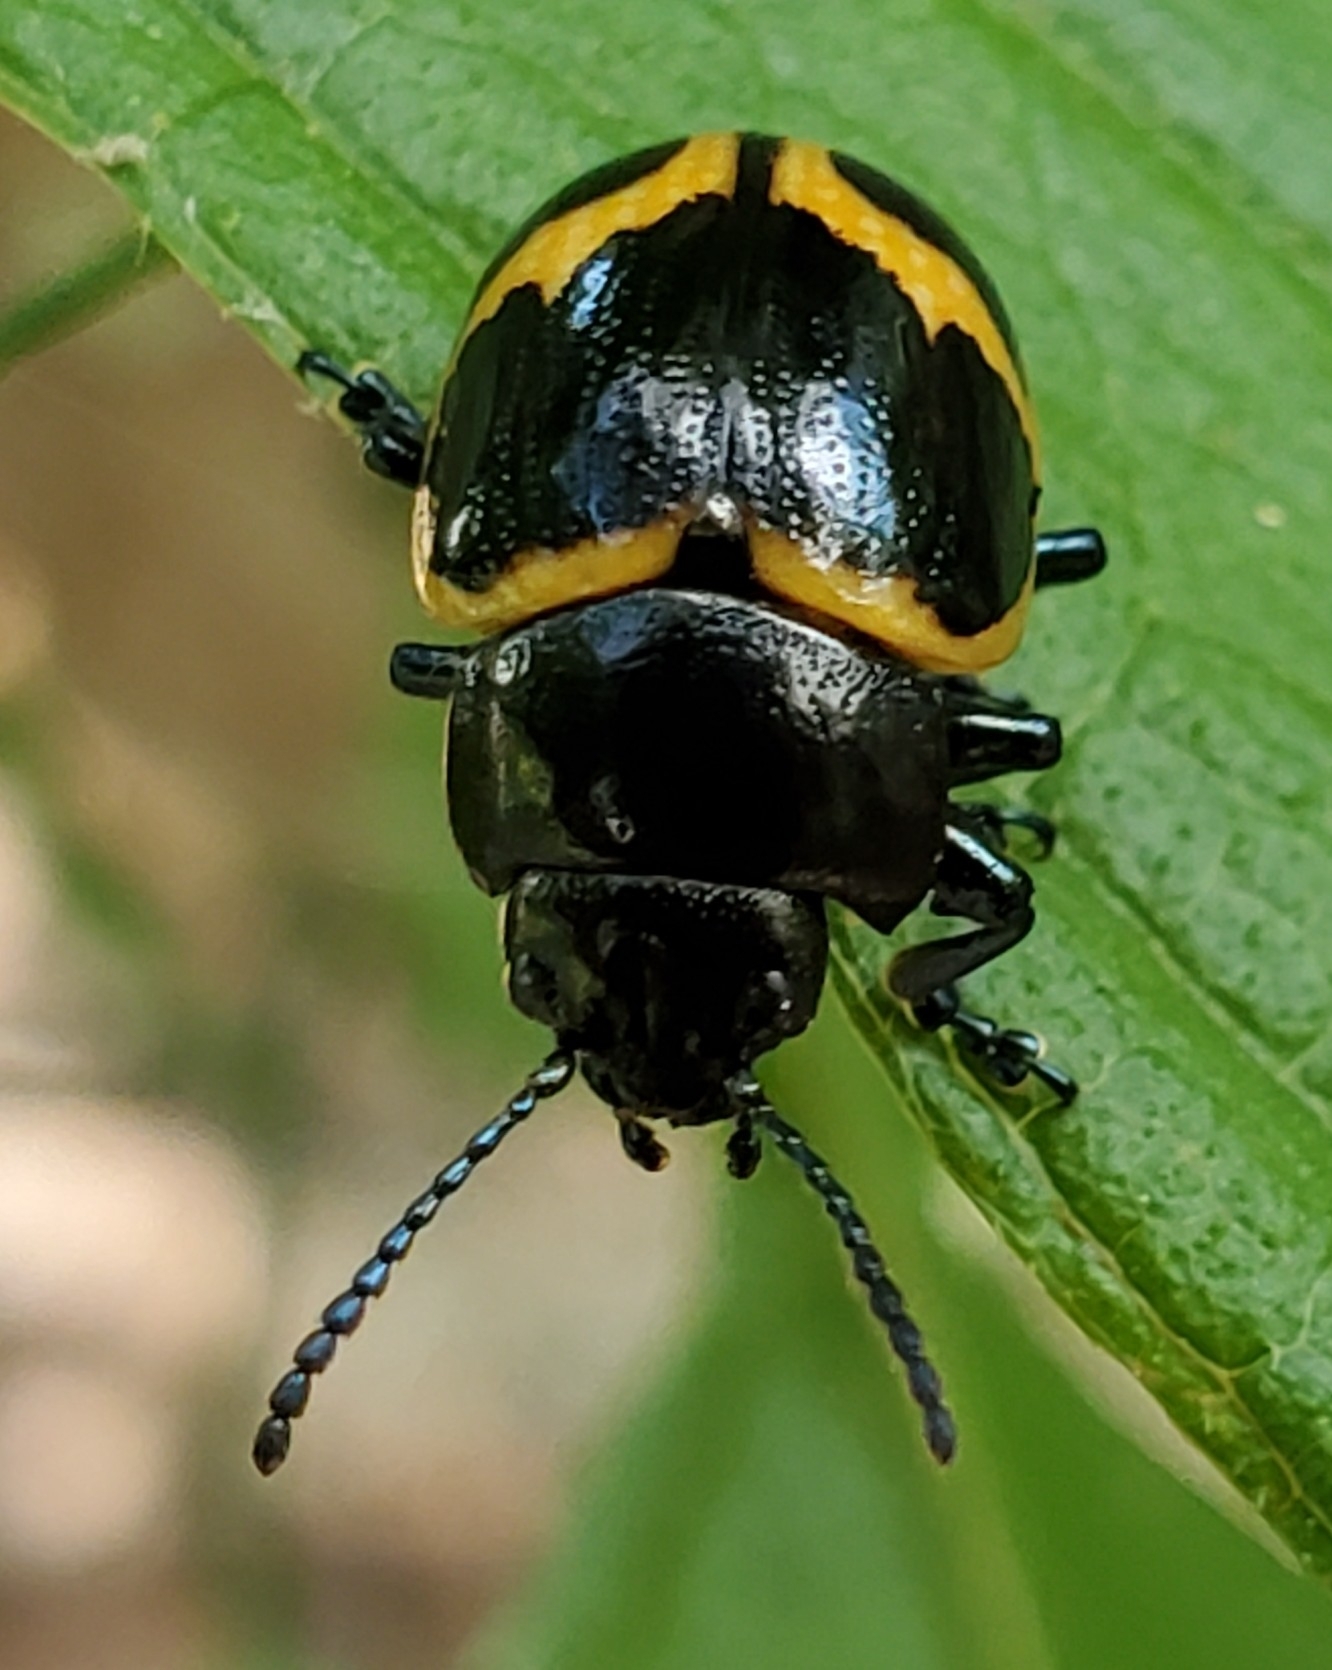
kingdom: Animalia
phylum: Arthropoda
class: Insecta
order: Coleoptera
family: Chrysomelidae
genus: Labidomera
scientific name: Labidomera clivicollis
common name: Swamp milkweed leaf beetle
